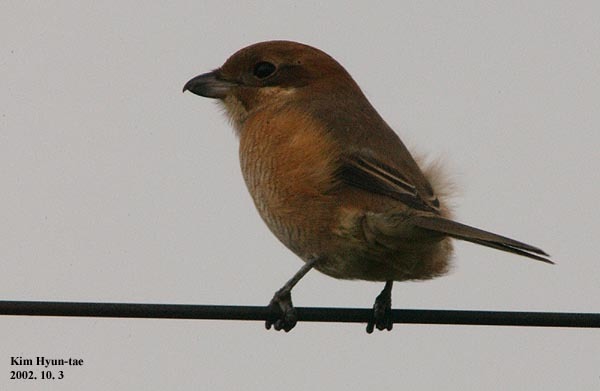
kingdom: Animalia
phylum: Chordata
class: Aves
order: Passeriformes
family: Laniidae
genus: Lanius
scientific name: Lanius bucephalus
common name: Bull-headed shrike
